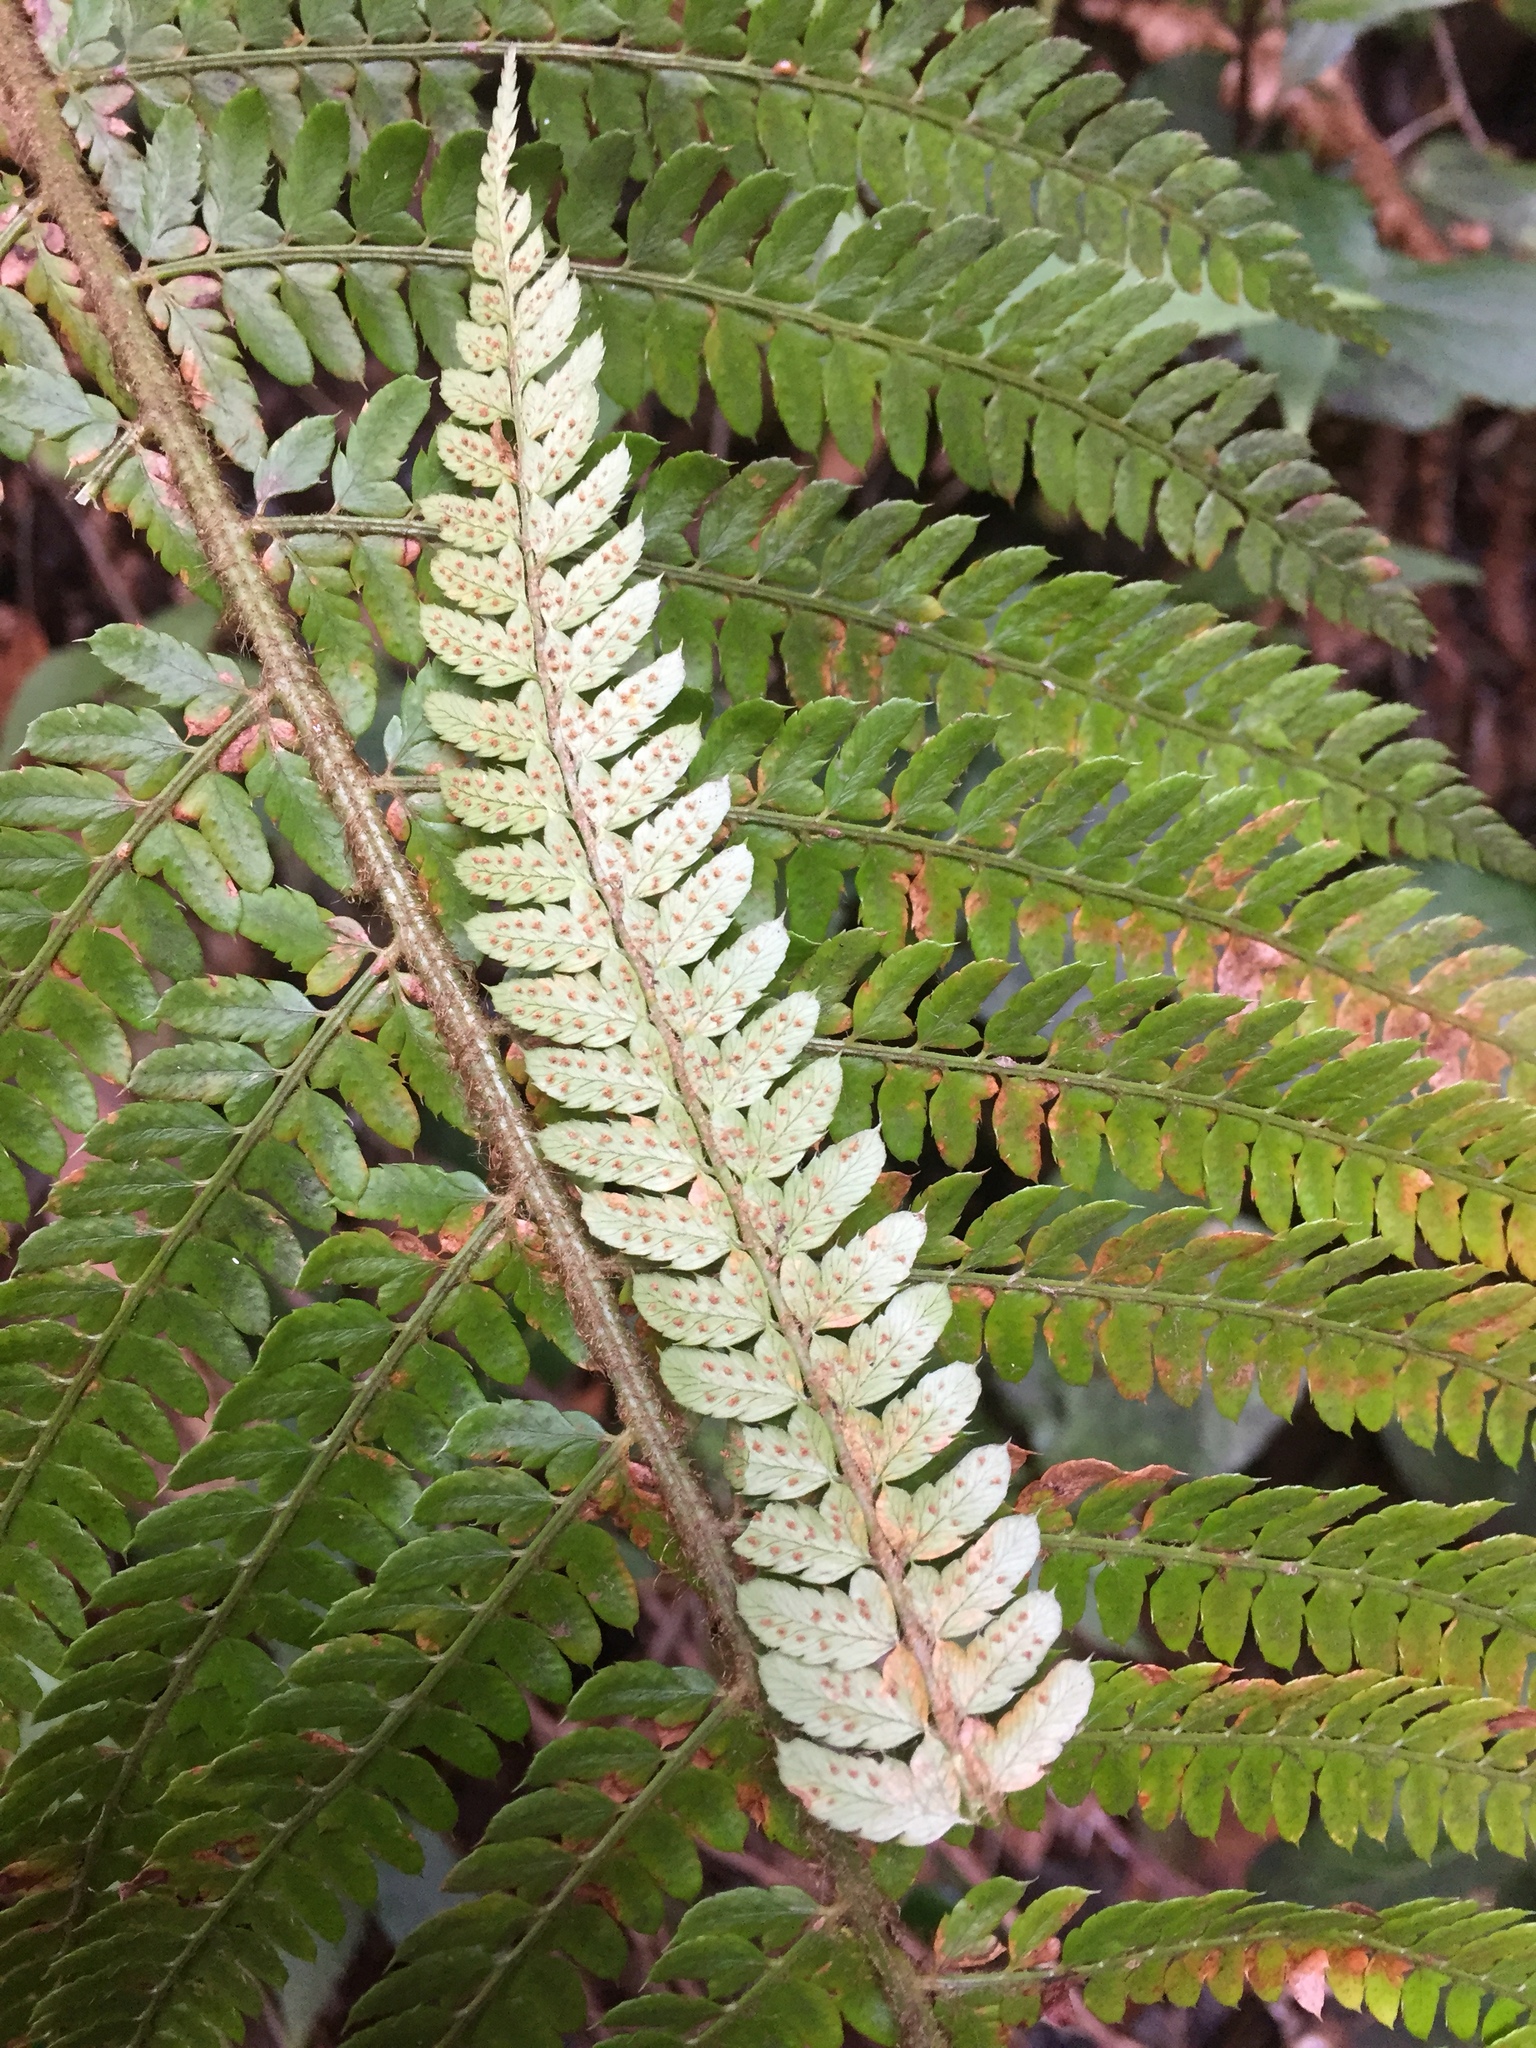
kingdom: Plantae
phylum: Tracheophyta
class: Polypodiopsida
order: Polypodiales
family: Dryopteridaceae
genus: Polystichum
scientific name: Polystichum setiferum
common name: Soft shield-fern
